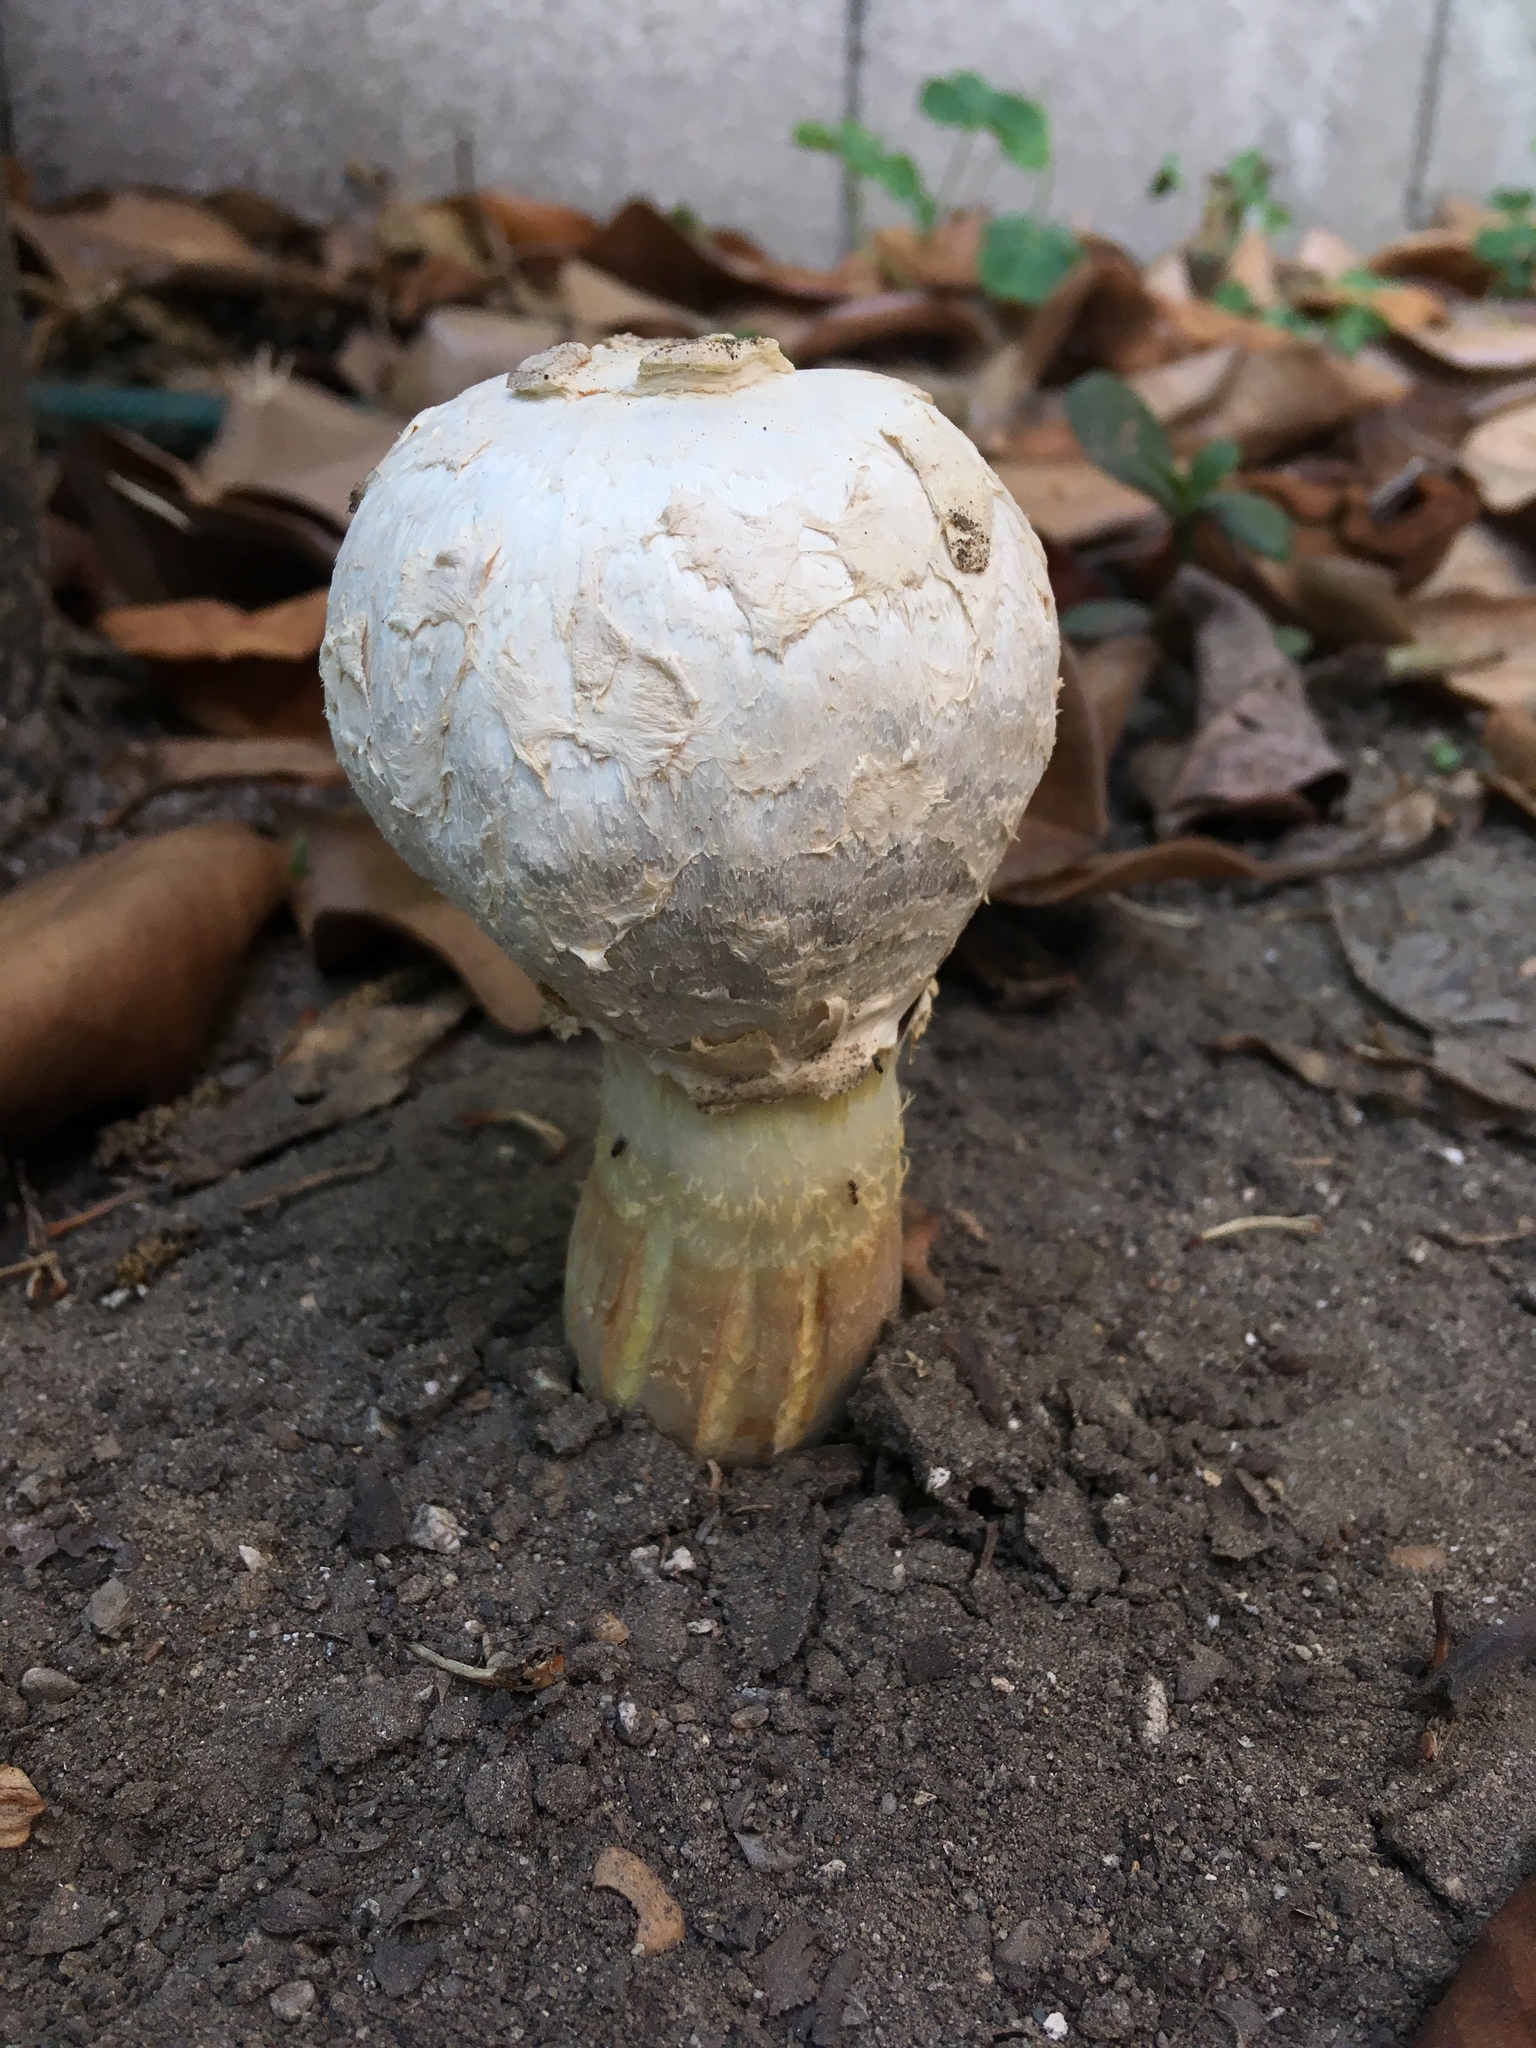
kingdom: Fungi
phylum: Basidiomycota
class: Agaricomycetes
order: Agaricales
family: Agaricaceae
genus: Agaricus
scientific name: Agaricus deserticola
